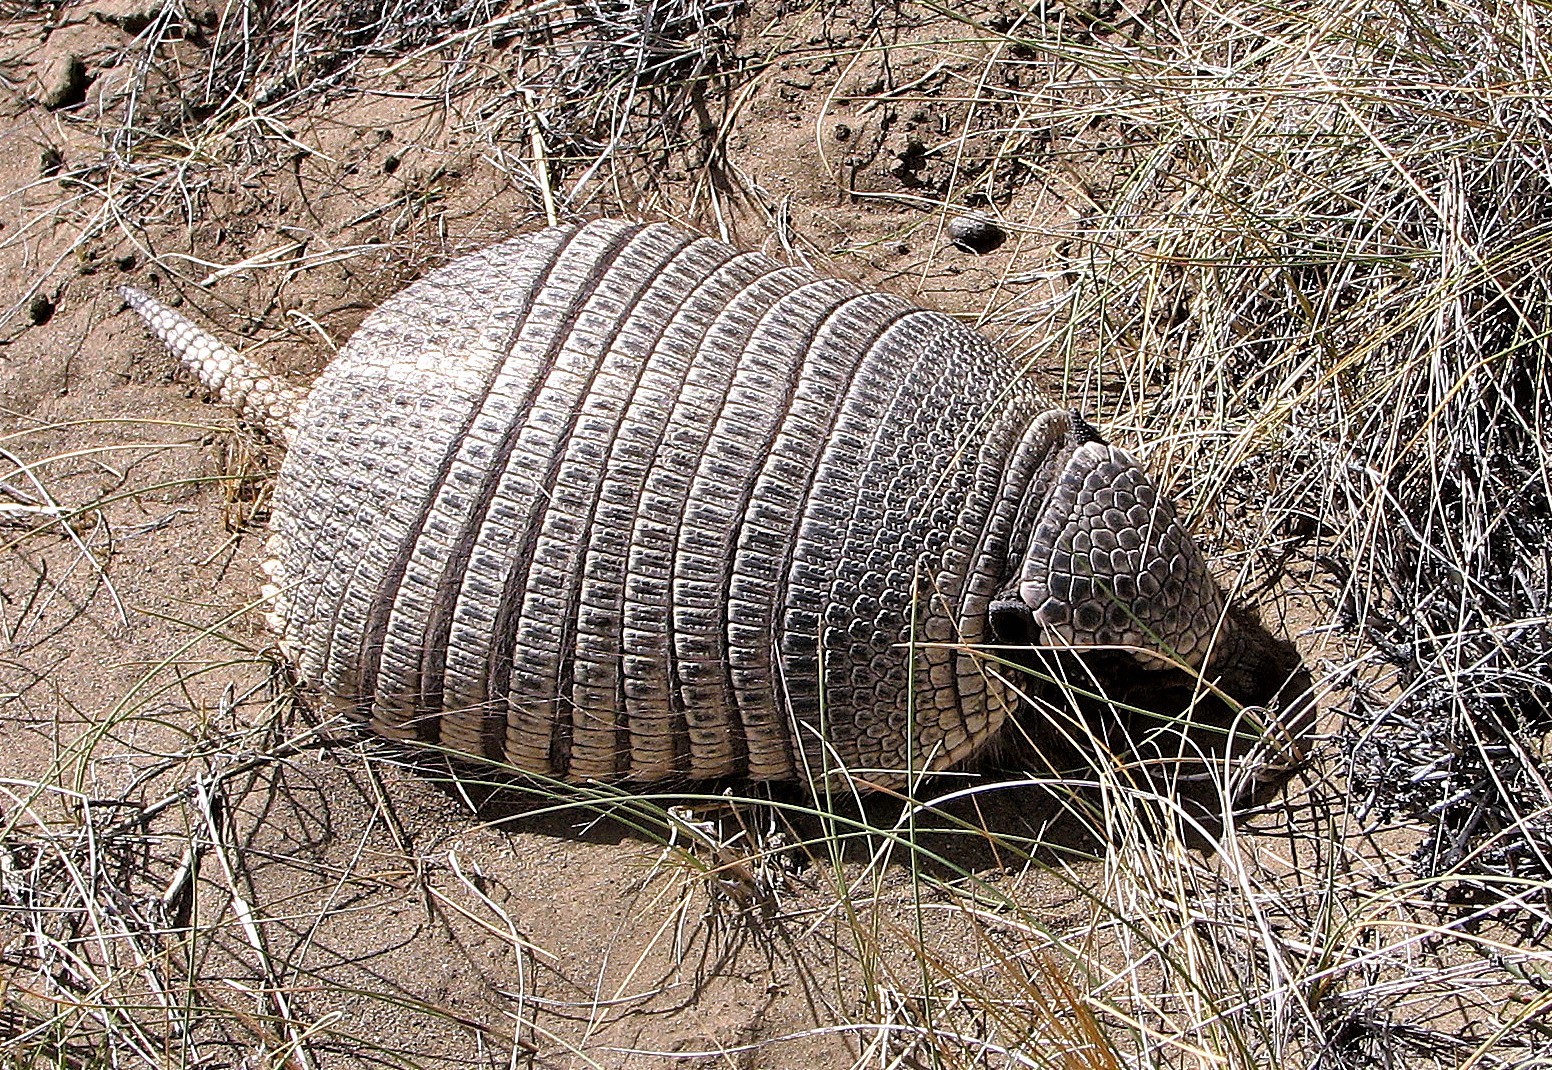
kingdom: Animalia
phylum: Chordata
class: Mammalia
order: Cingulata
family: Dasypodidae
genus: Zaedyus
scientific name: Zaedyus pichiy
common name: Pichi
